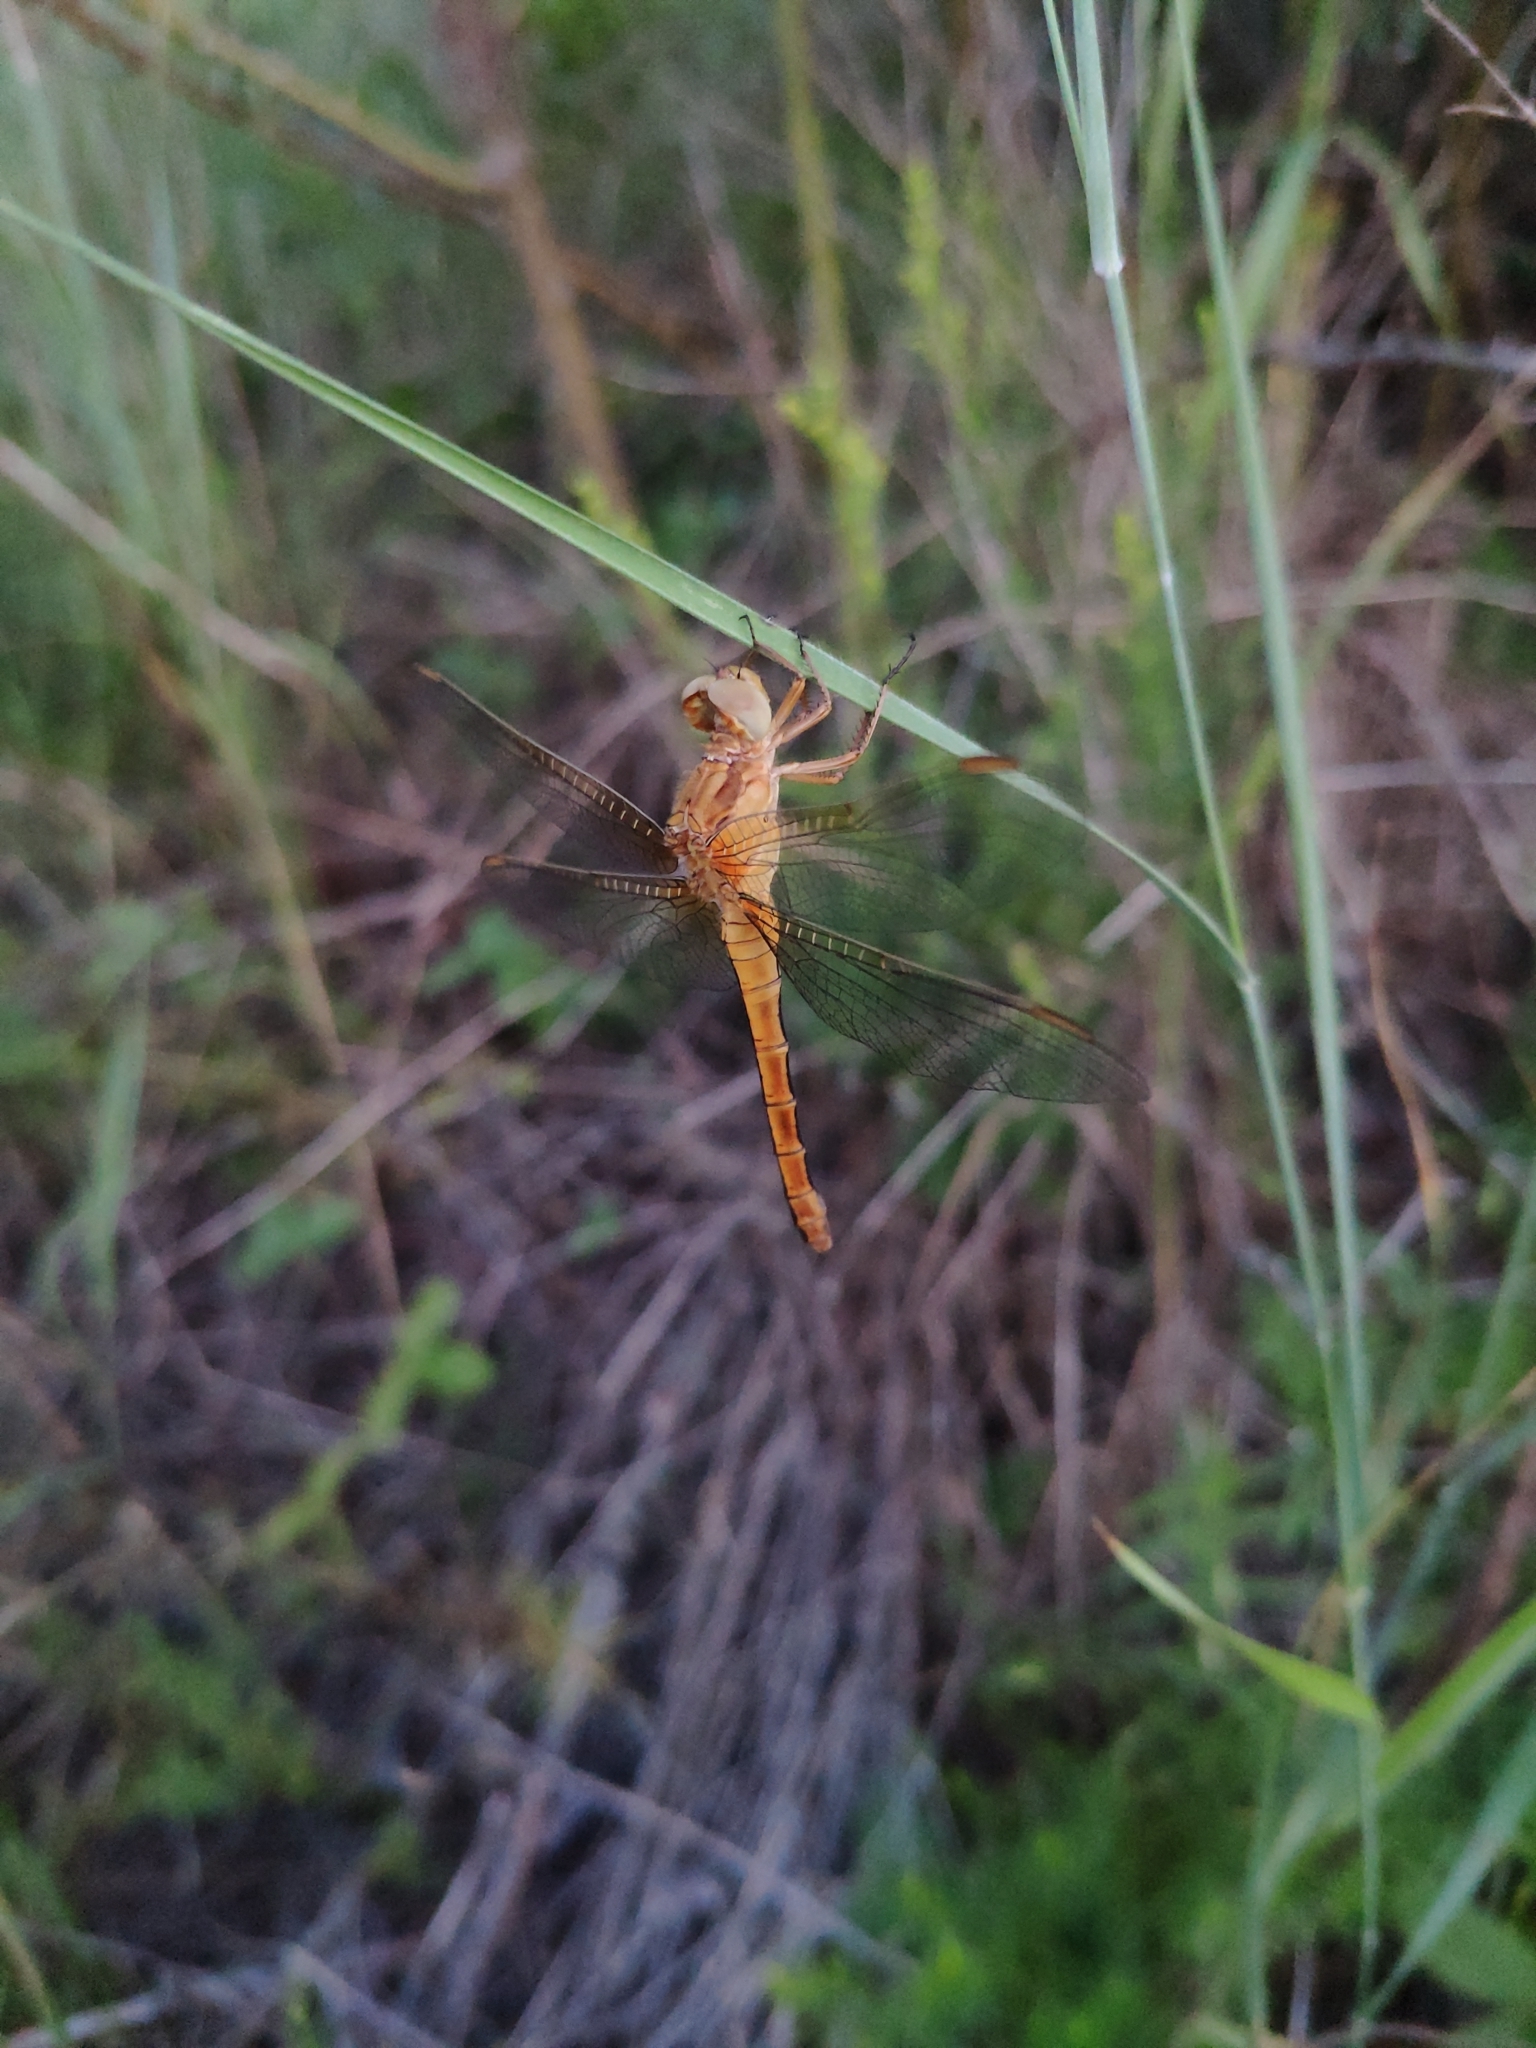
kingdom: Animalia
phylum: Arthropoda
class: Insecta
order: Odonata
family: Libellulidae
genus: Orthetrum
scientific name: Orthetrum coerulescens
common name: Keeled skimmer
